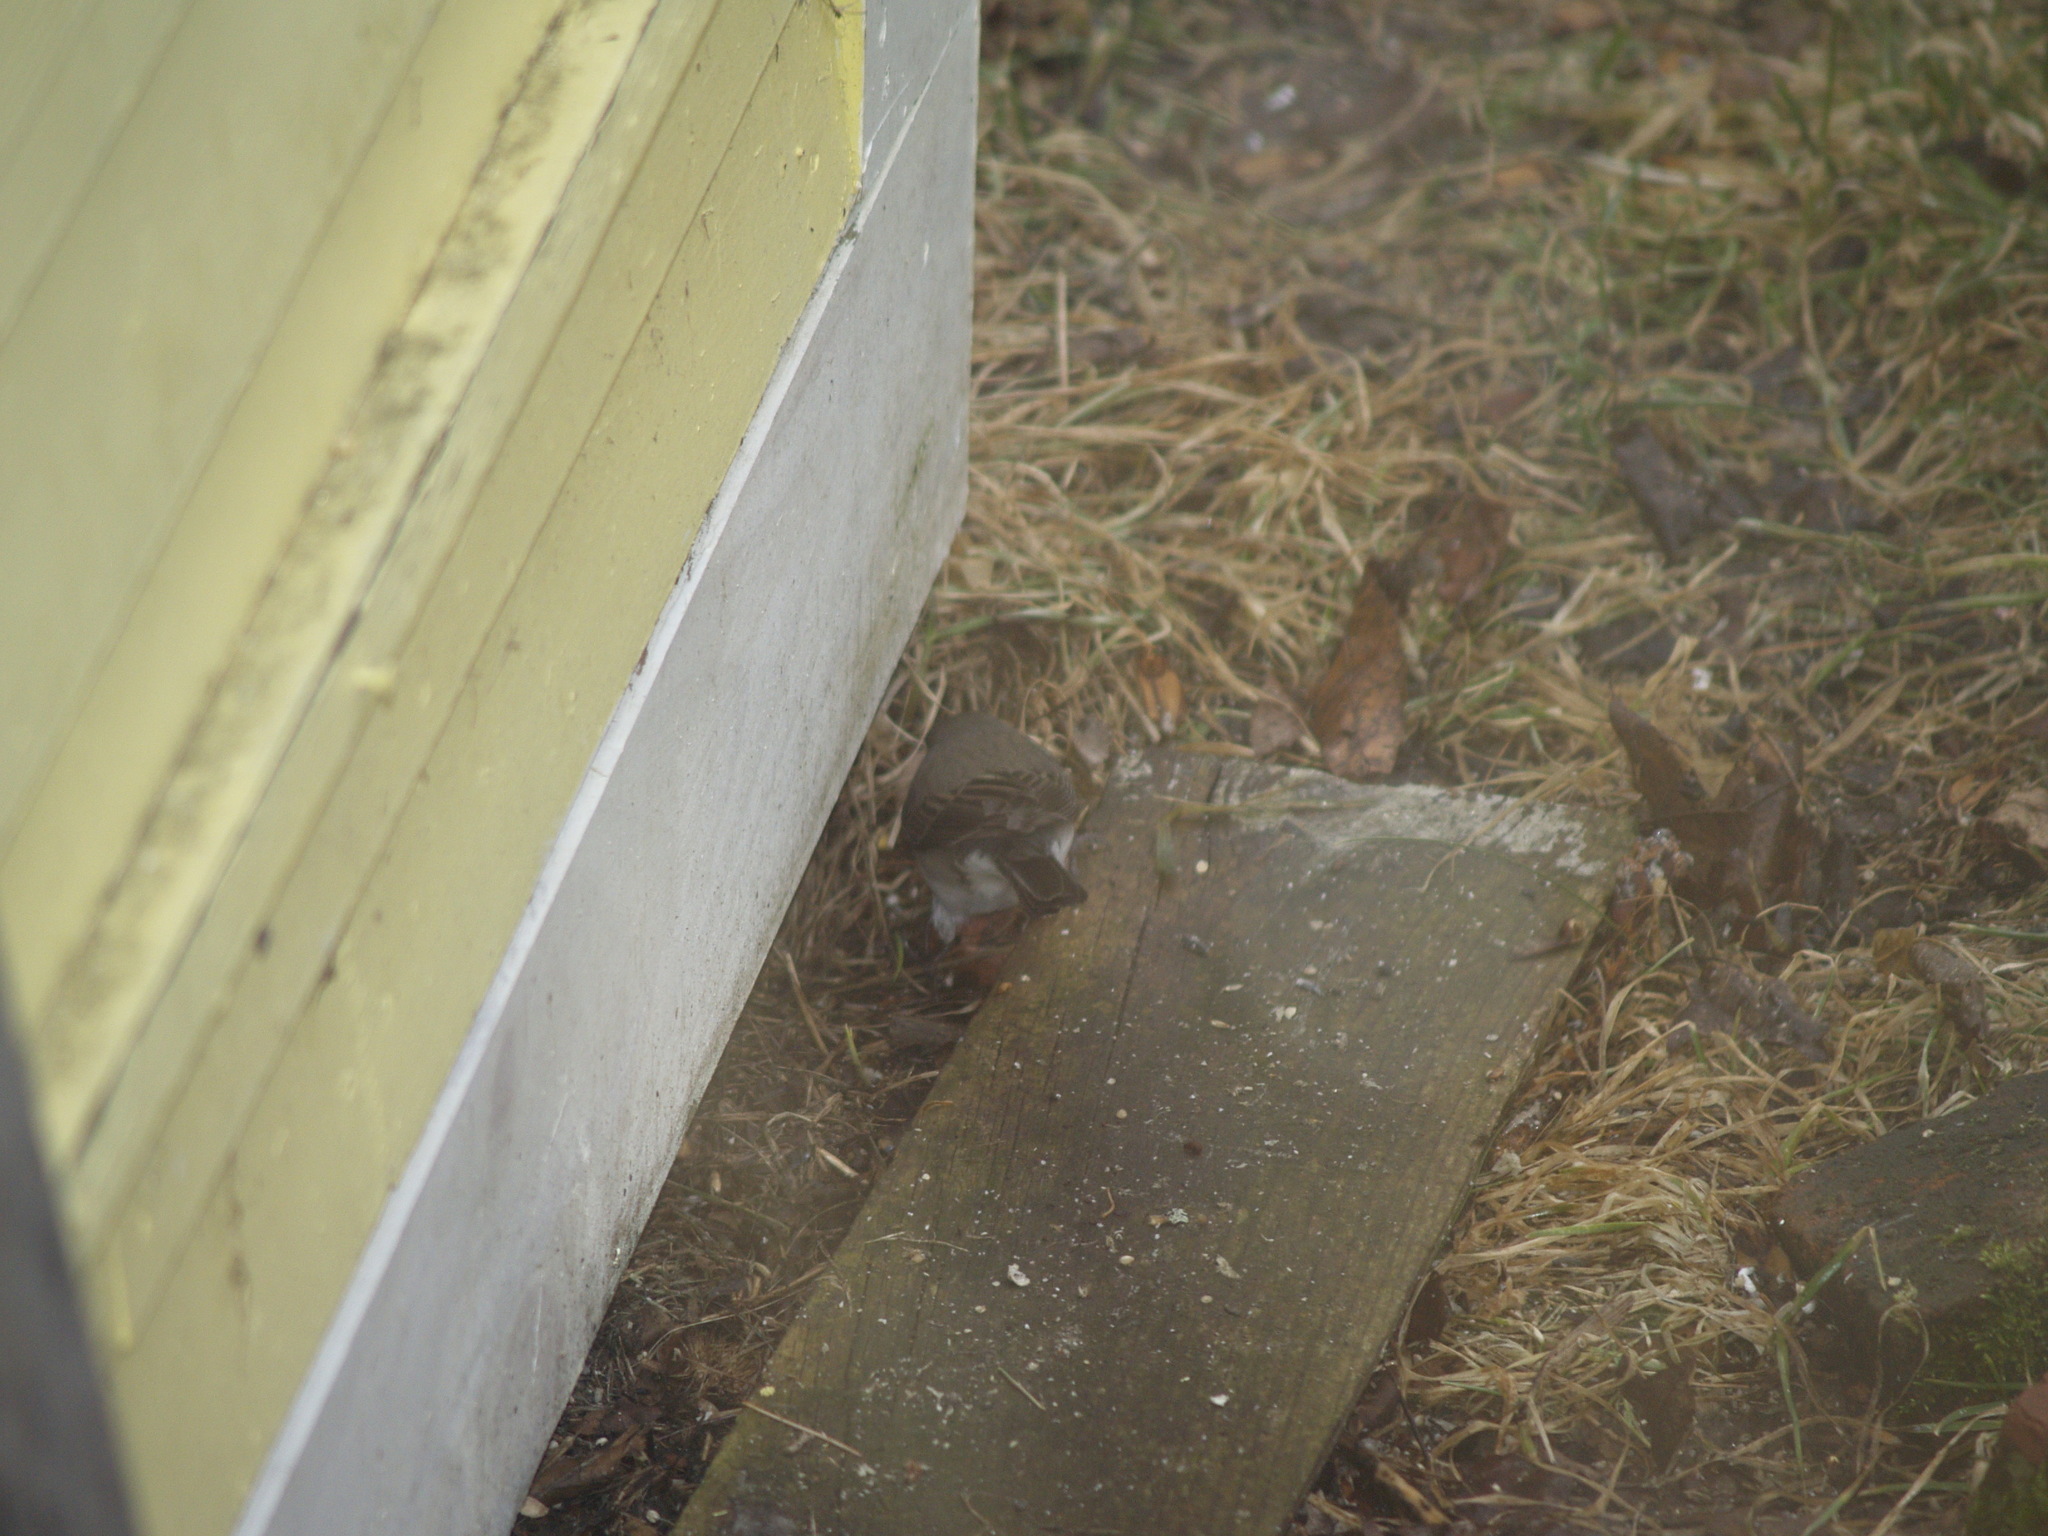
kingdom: Animalia
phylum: Chordata
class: Aves
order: Passeriformes
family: Passerellidae
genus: Junco
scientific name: Junco hyemalis
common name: Dark-eyed junco
